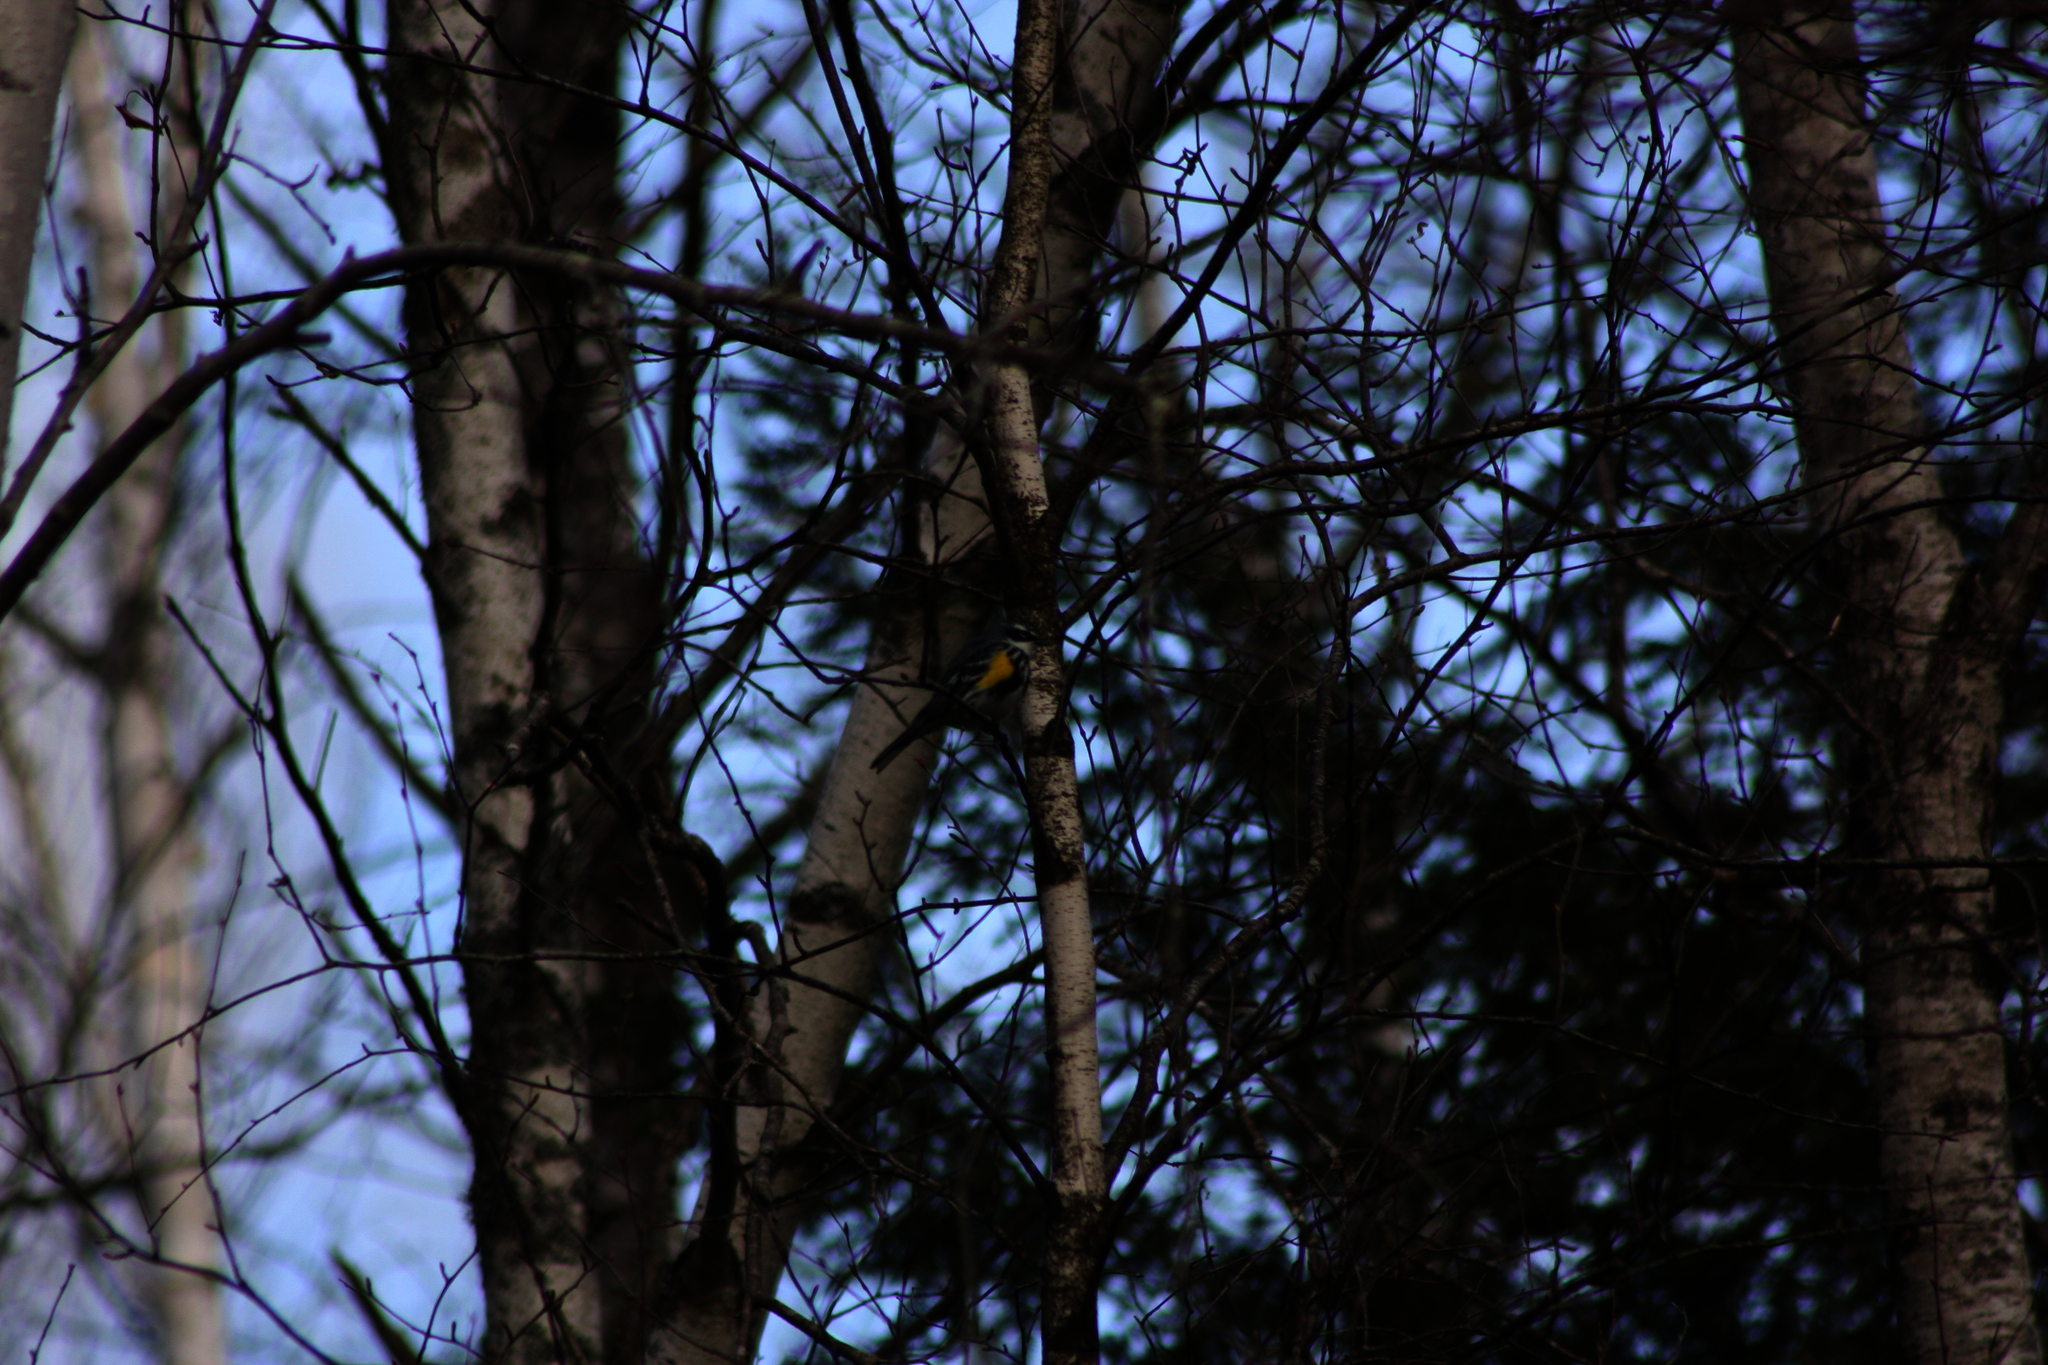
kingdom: Animalia
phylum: Chordata
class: Aves
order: Passeriformes
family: Parulidae
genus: Setophaga
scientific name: Setophaga coronata
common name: Myrtle warbler
